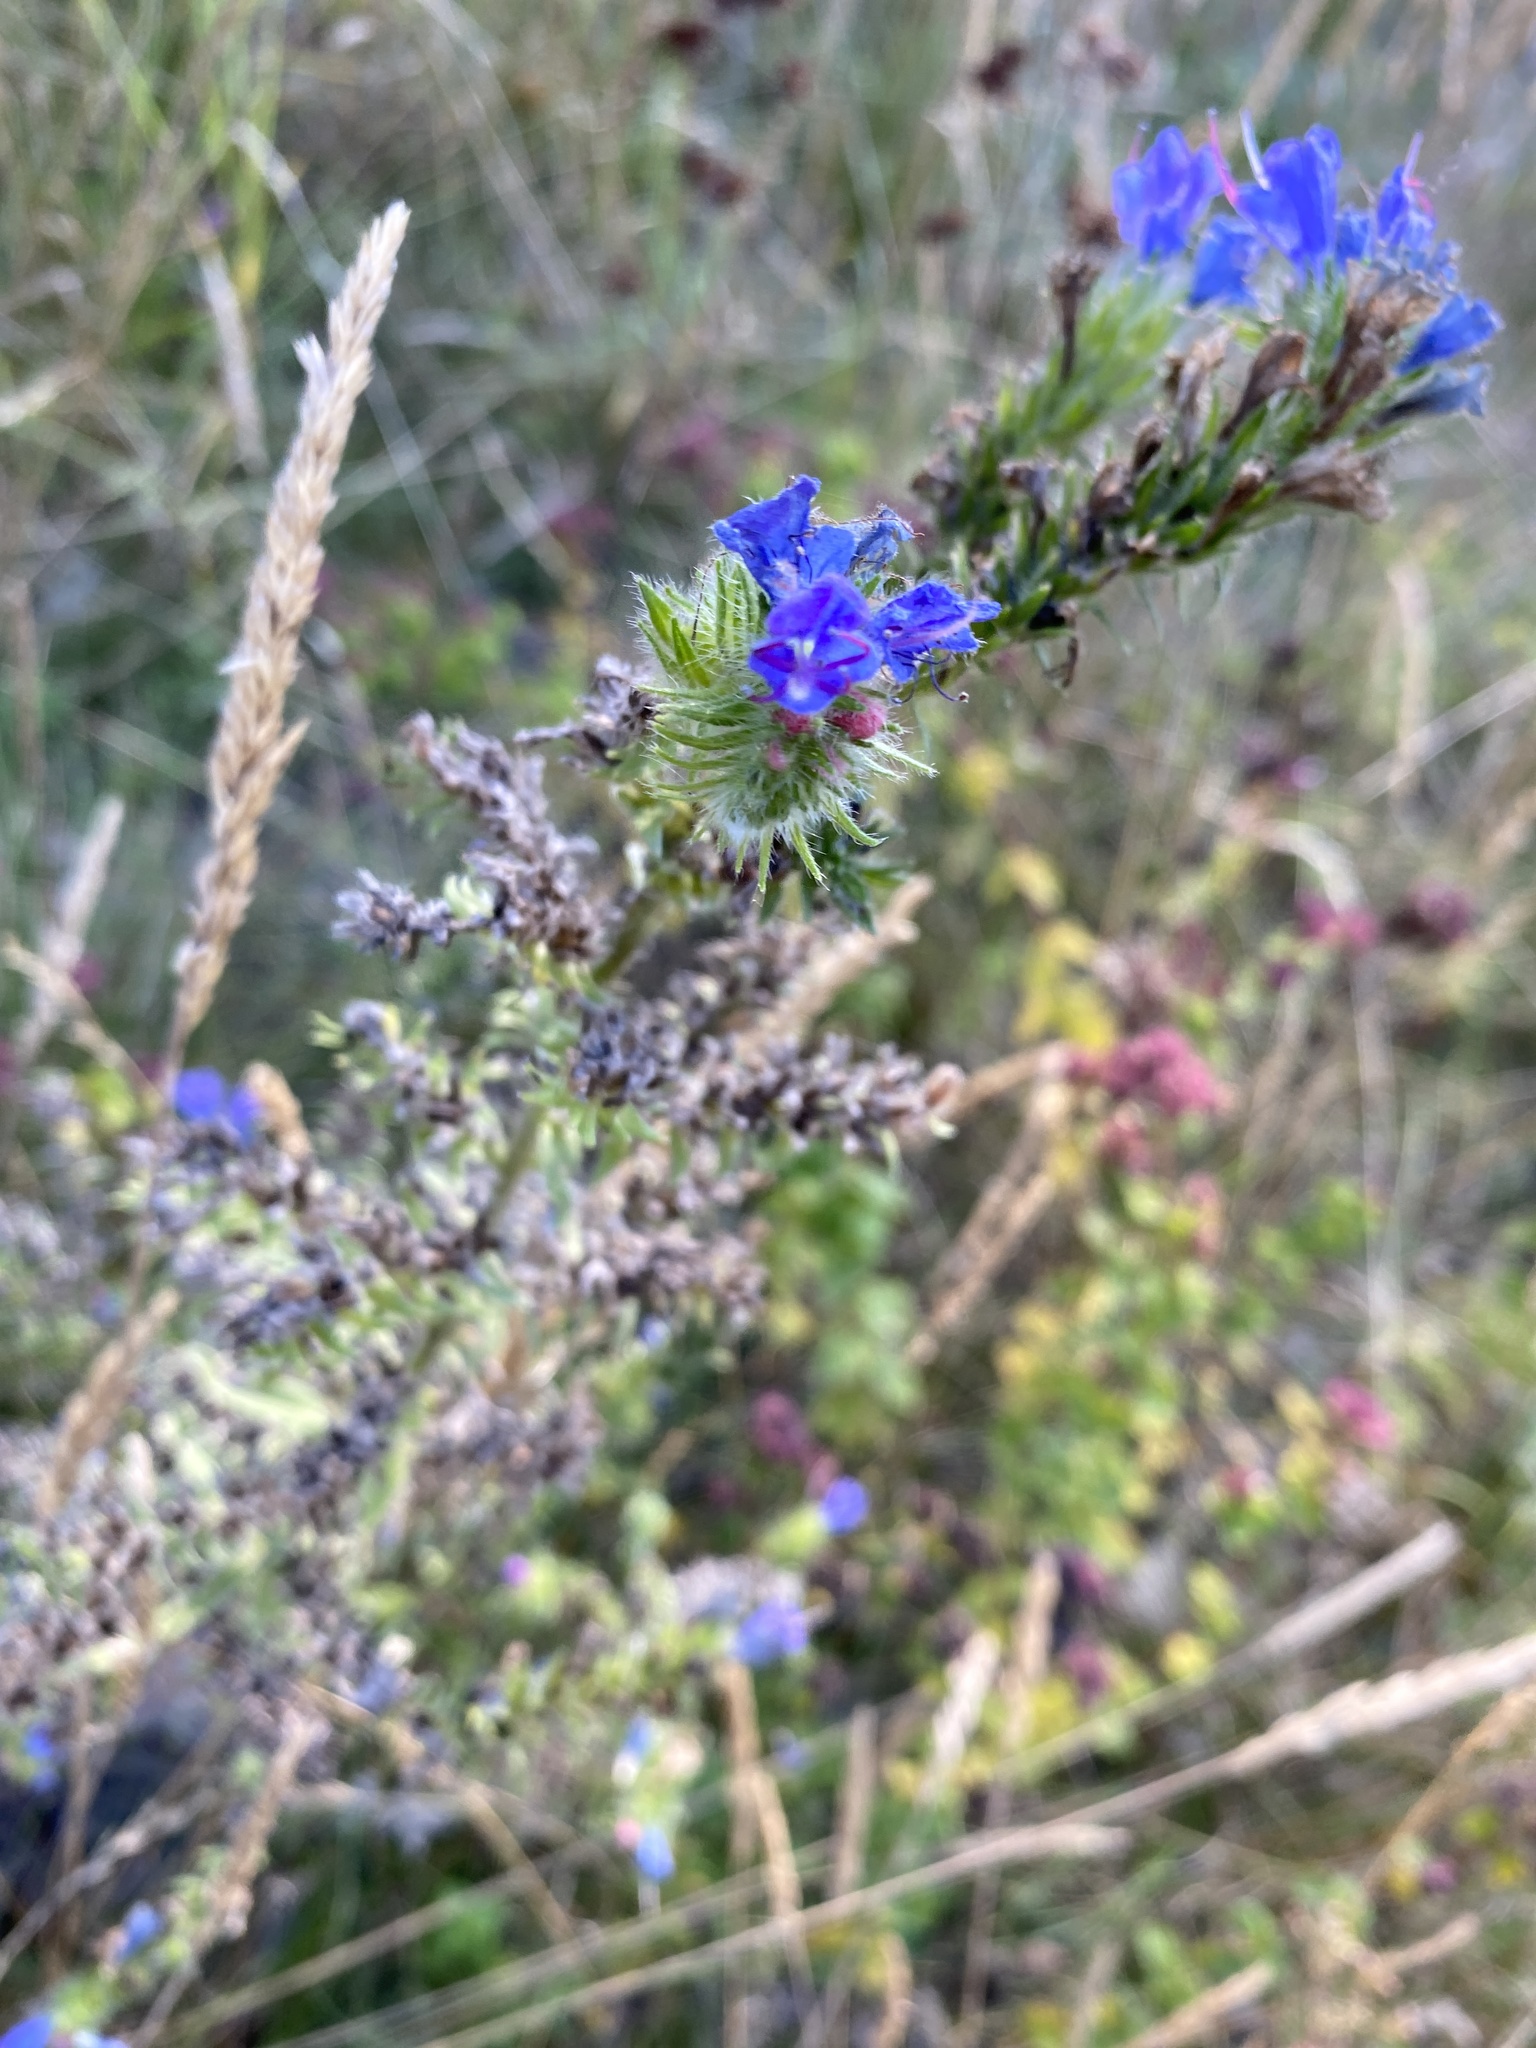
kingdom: Plantae
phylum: Tracheophyta
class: Magnoliopsida
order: Boraginales
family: Boraginaceae
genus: Echium
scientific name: Echium vulgare
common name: Common viper's bugloss
